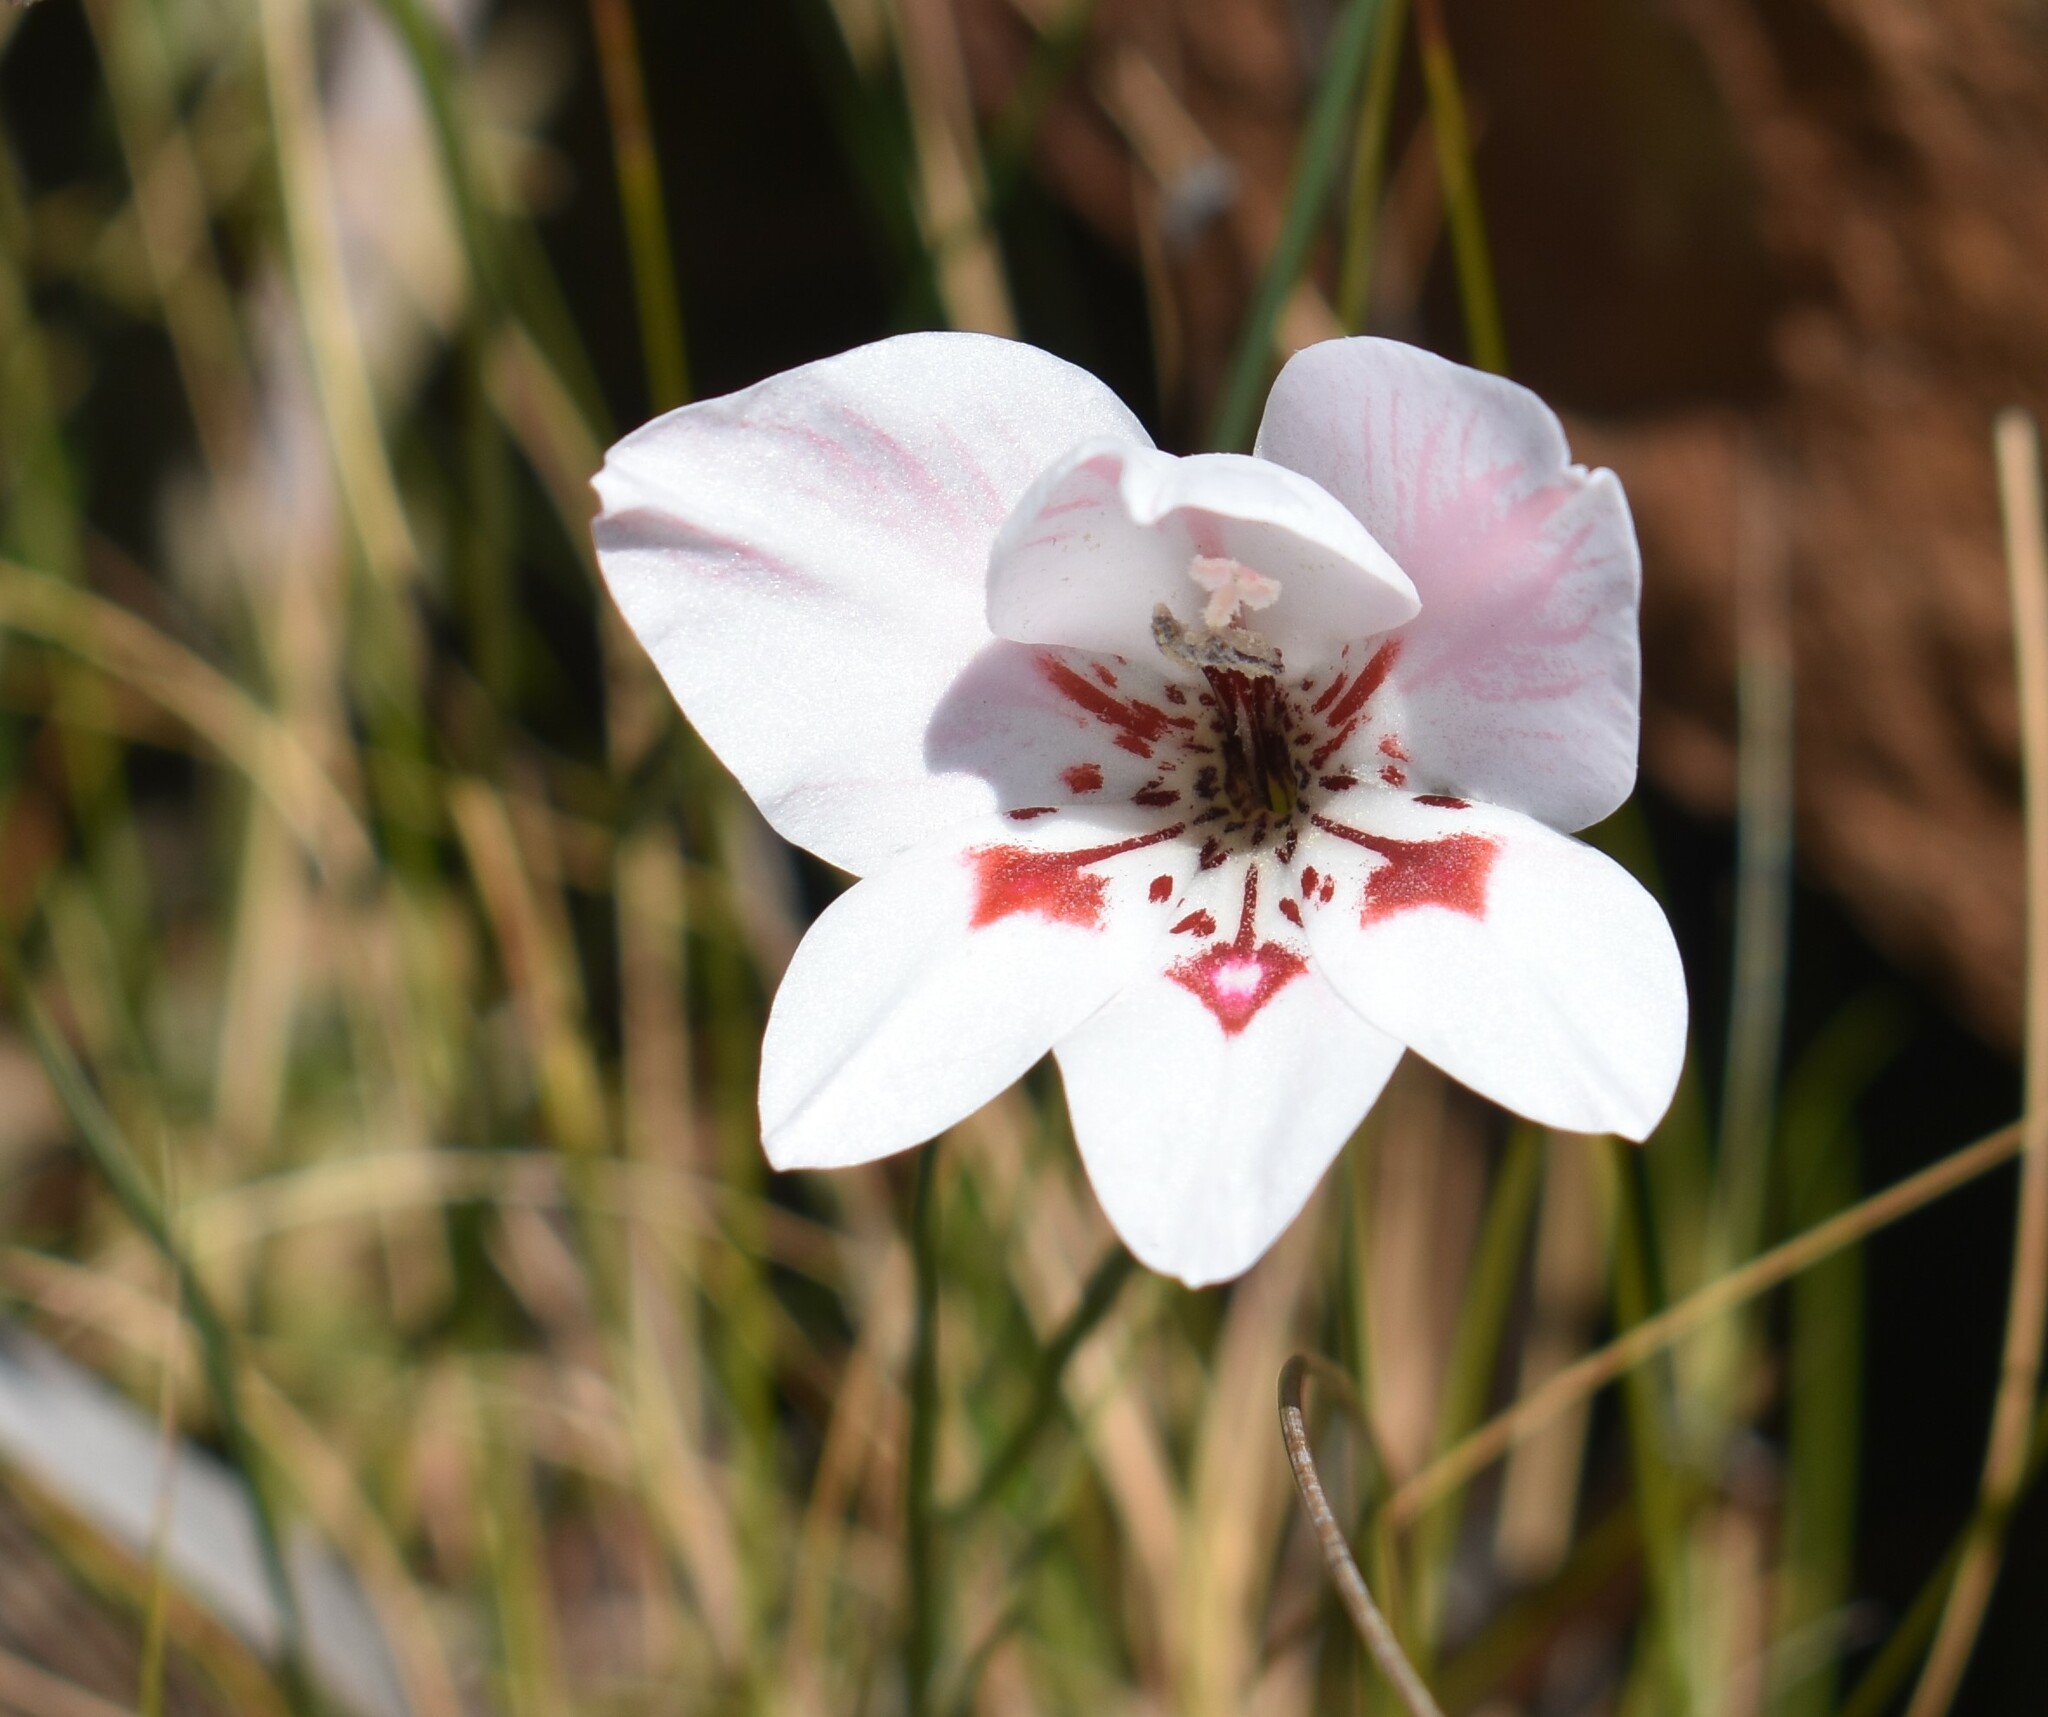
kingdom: Plantae
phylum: Tracheophyta
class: Liliopsida
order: Asparagales
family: Iridaceae
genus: Gladiolus
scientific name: Gladiolus debilis
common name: Painted-lady
